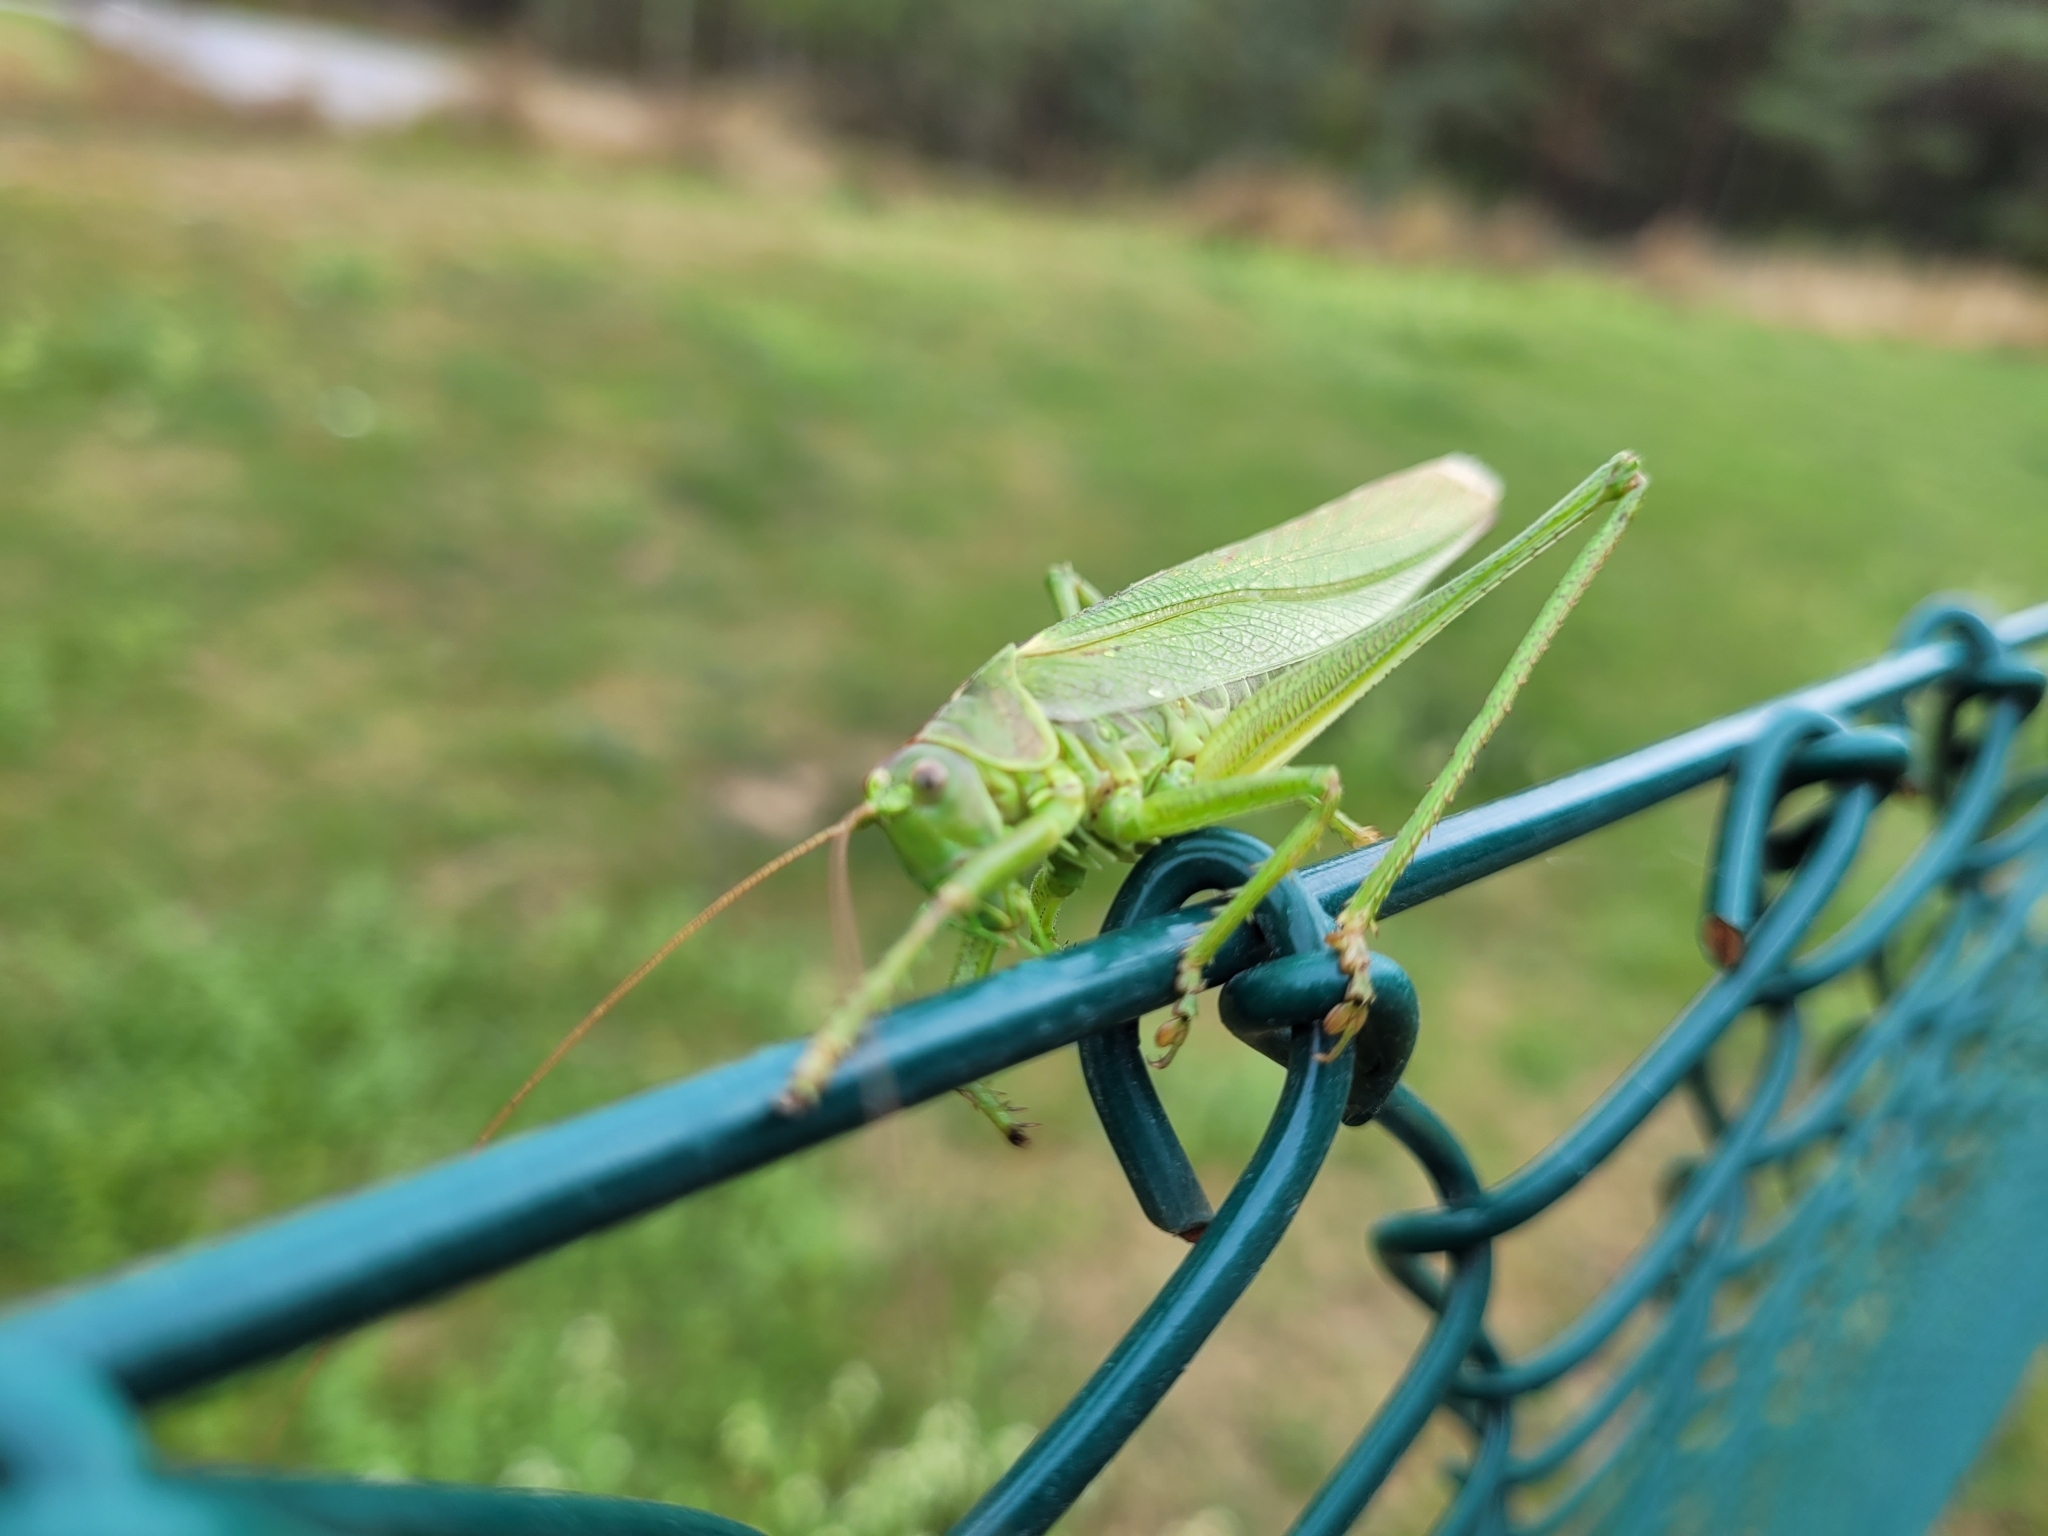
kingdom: Animalia
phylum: Arthropoda
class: Insecta
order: Orthoptera
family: Tettigoniidae
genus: Tettigonia
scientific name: Tettigonia viridissima
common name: Great green bush-cricket
